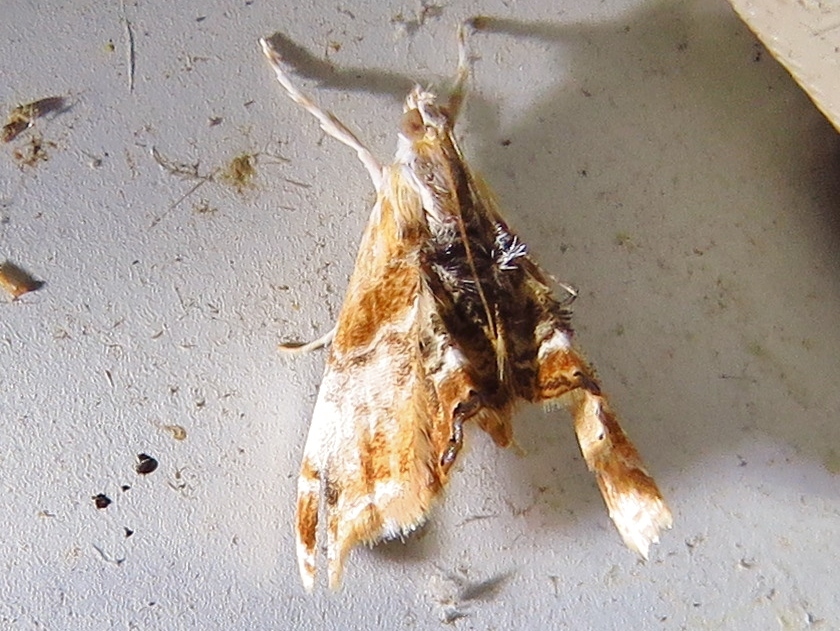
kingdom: Animalia
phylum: Arthropoda
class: Insecta
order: Lepidoptera
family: Crambidae
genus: Dicymolomia
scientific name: Dicymolomia julianalis
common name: Julia's dicymolomia moth
